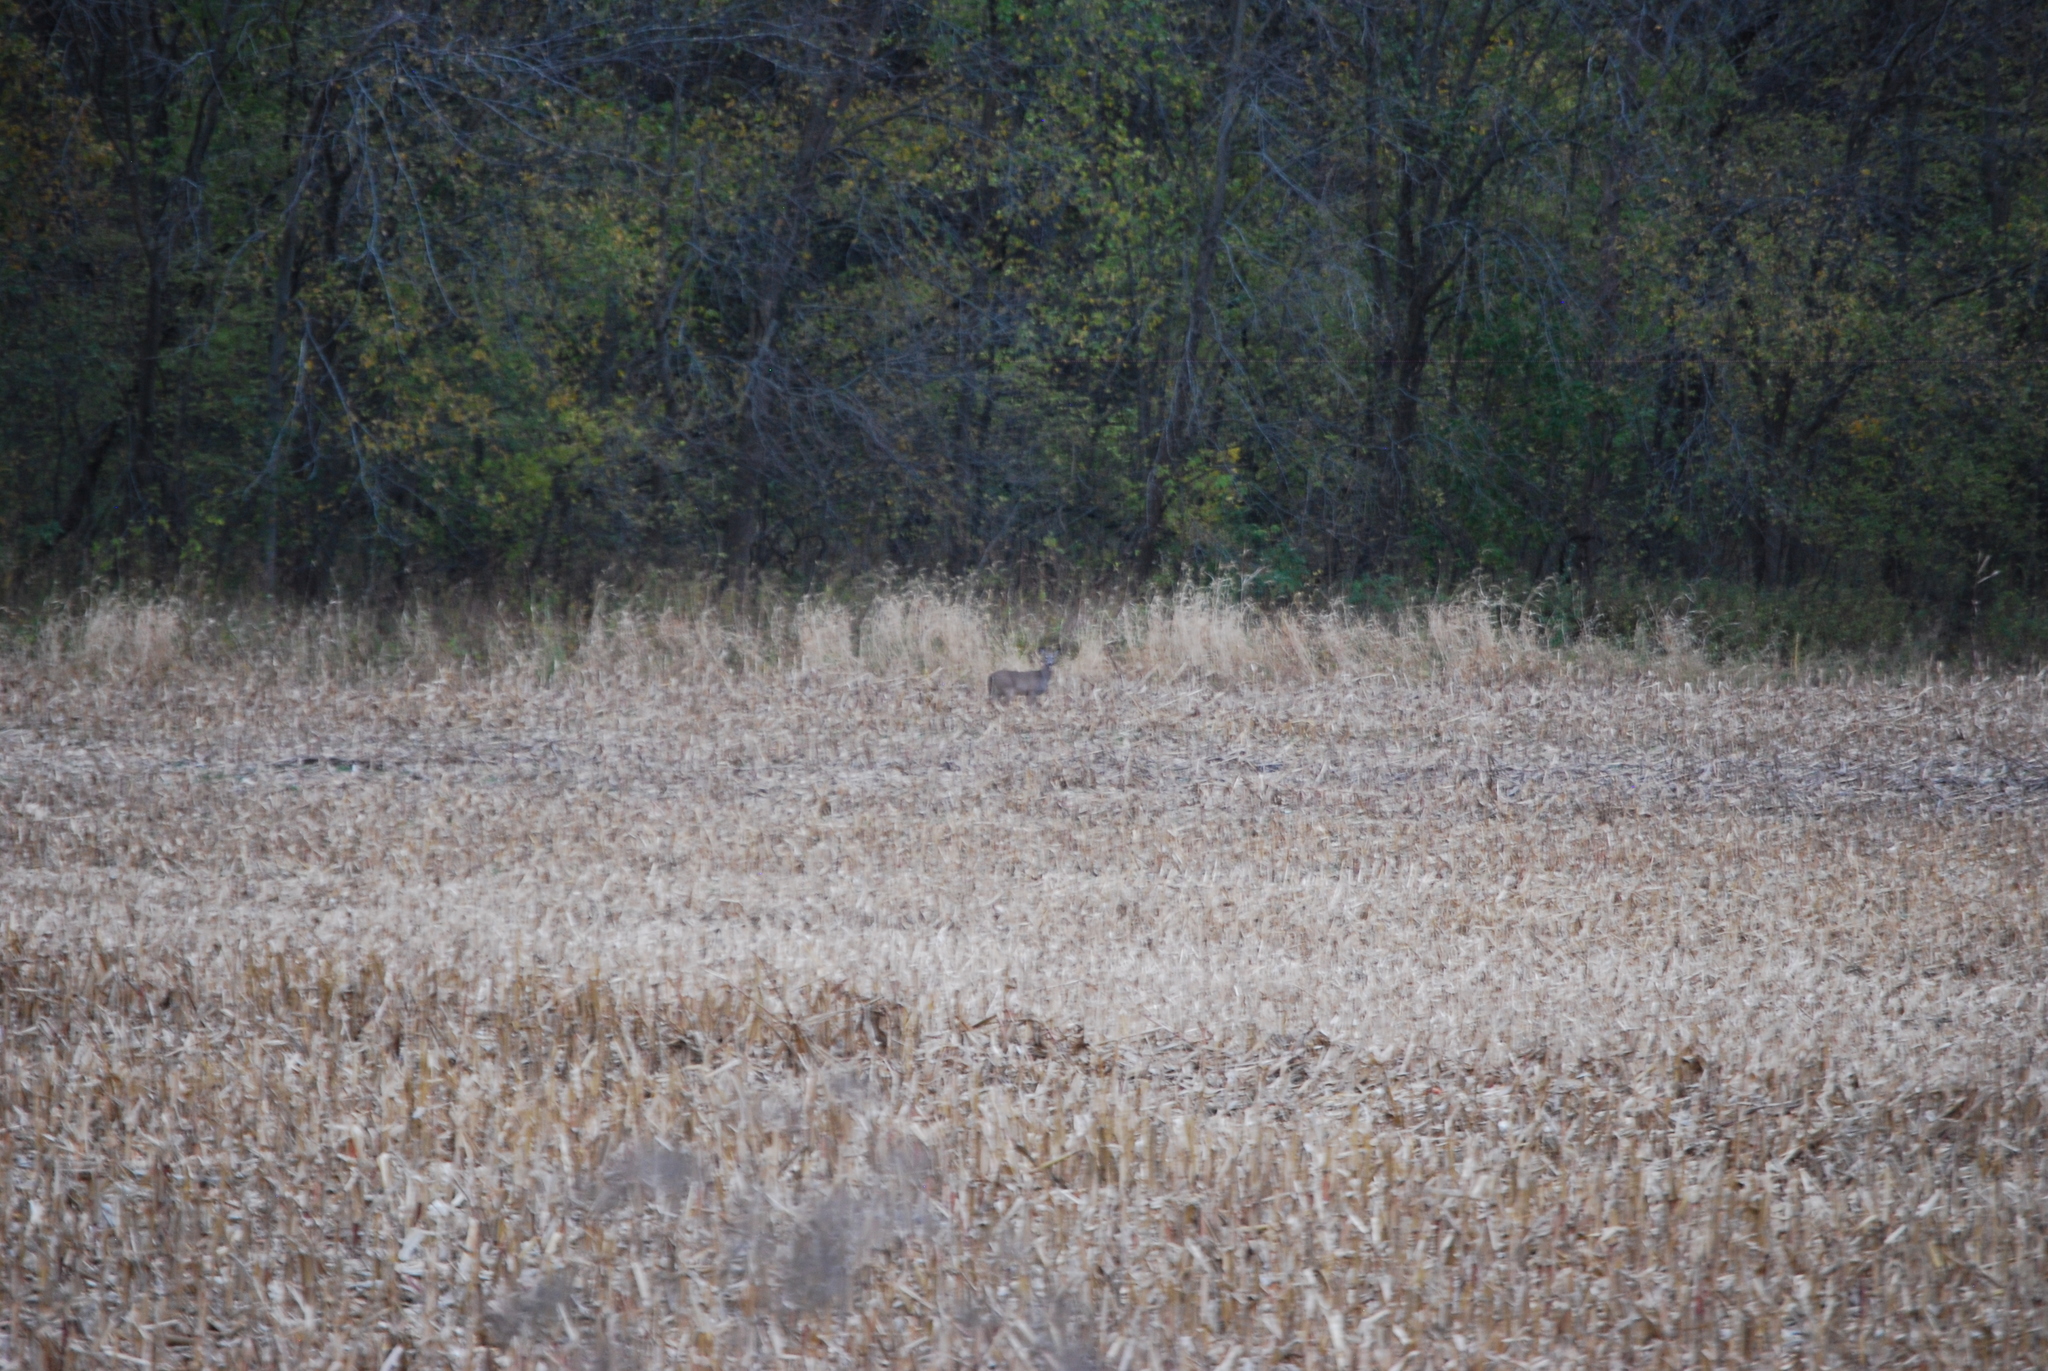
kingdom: Animalia
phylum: Chordata
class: Mammalia
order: Artiodactyla
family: Cervidae
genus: Odocoileus
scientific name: Odocoileus virginianus
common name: White-tailed deer
